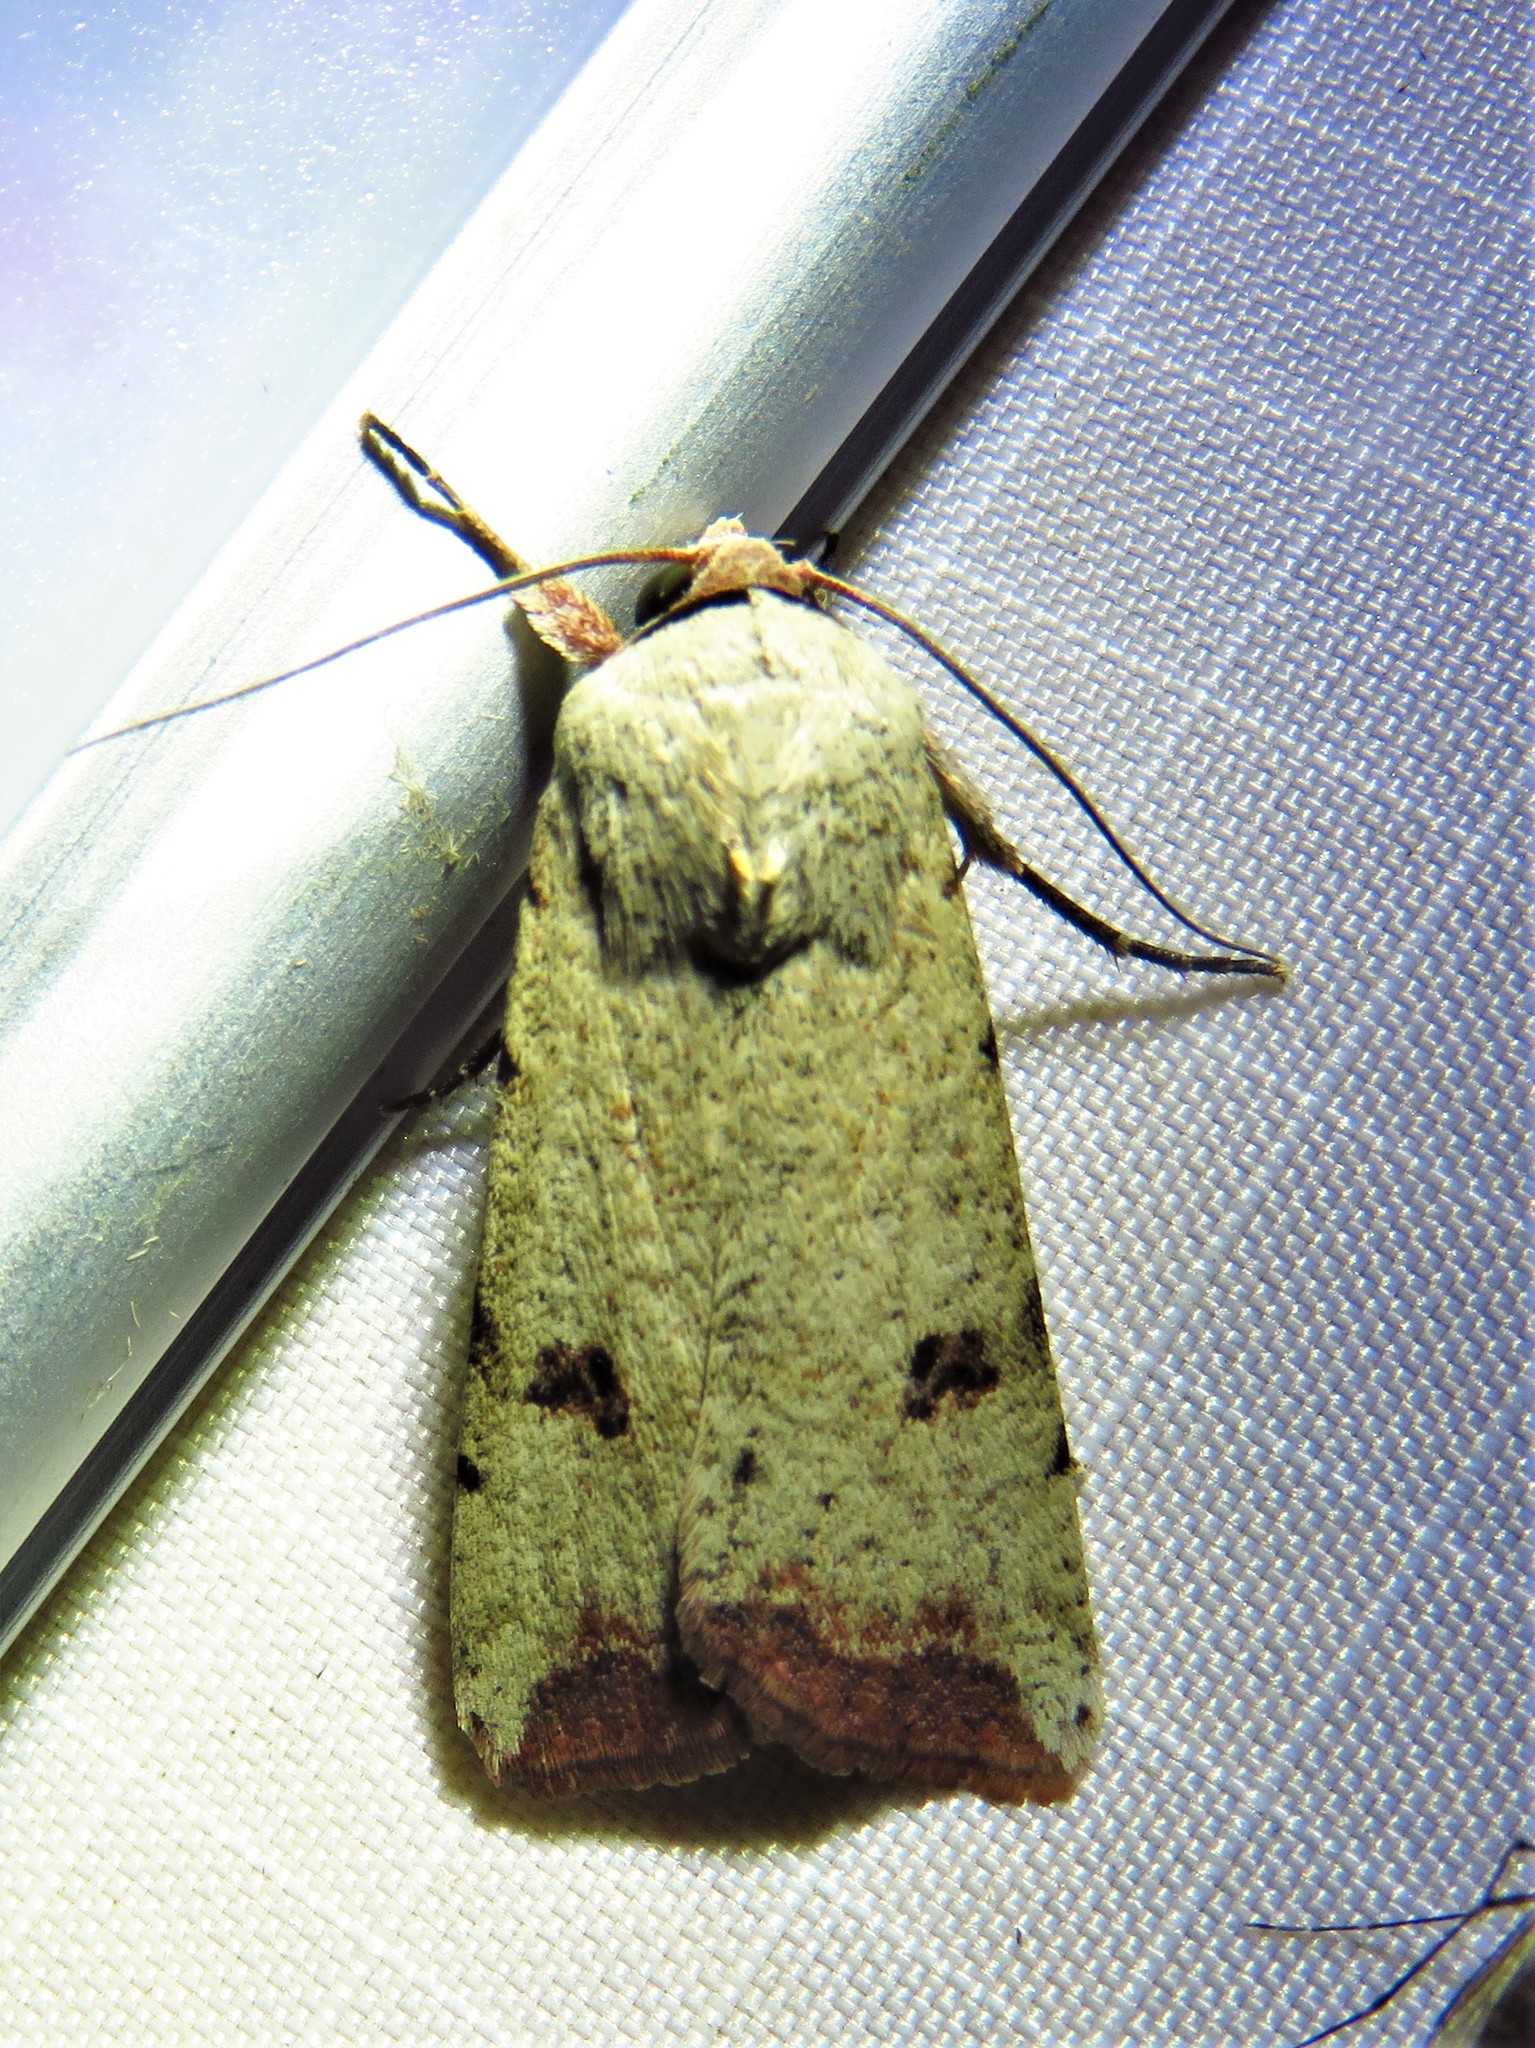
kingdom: Animalia
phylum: Arthropoda
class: Insecta
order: Lepidoptera
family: Noctuidae
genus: Anicla
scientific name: Anicla infecta
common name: Green cutworm
